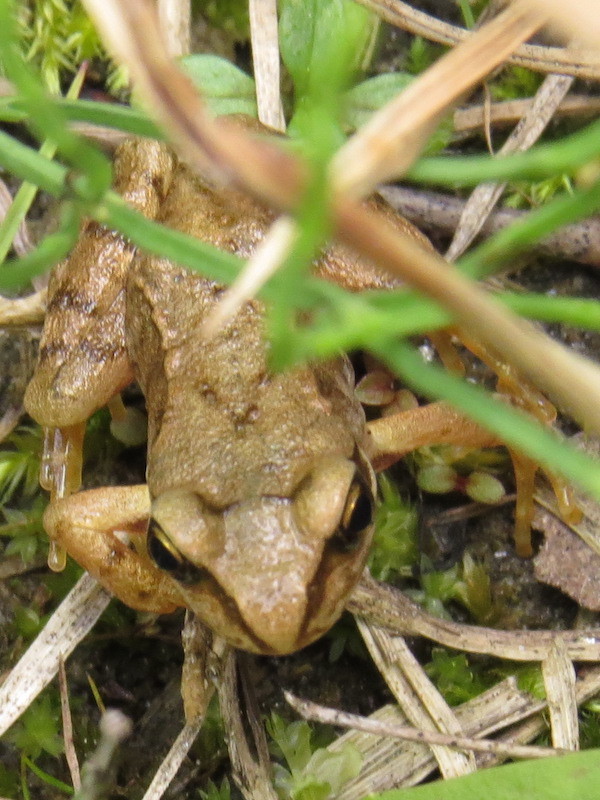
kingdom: Animalia
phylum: Chordata
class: Amphibia
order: Anura
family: Ranidae
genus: Rana
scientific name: Rana temporaria
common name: Common frog
